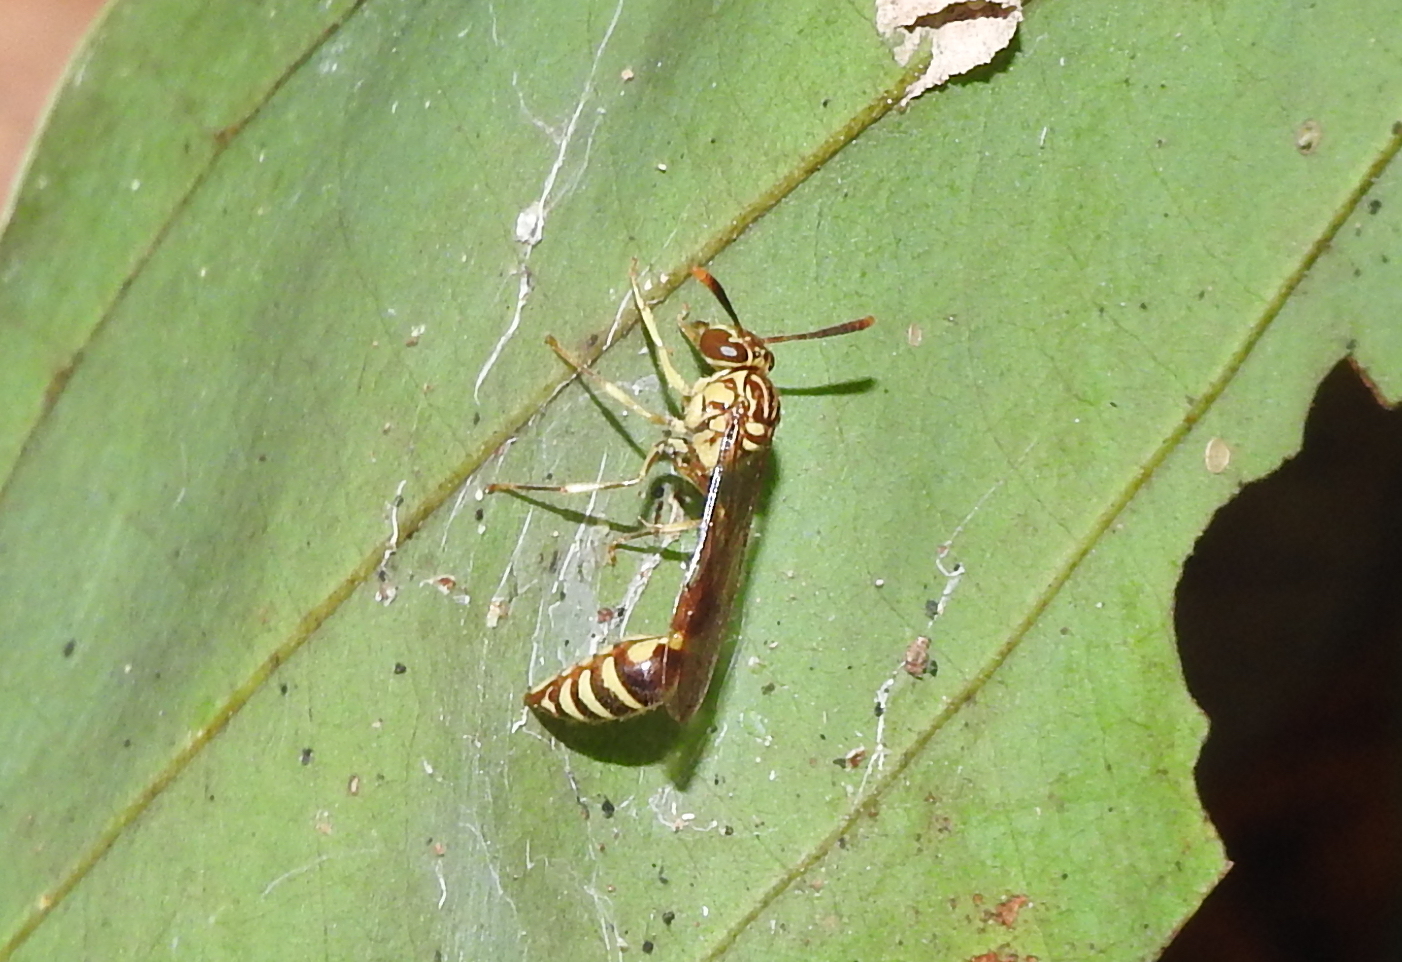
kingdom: Animalia
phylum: Arthropoda
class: Insecta
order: Hymenoptera
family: Vespidae
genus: Liostenogaster
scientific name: Liostenogaster variapicta
